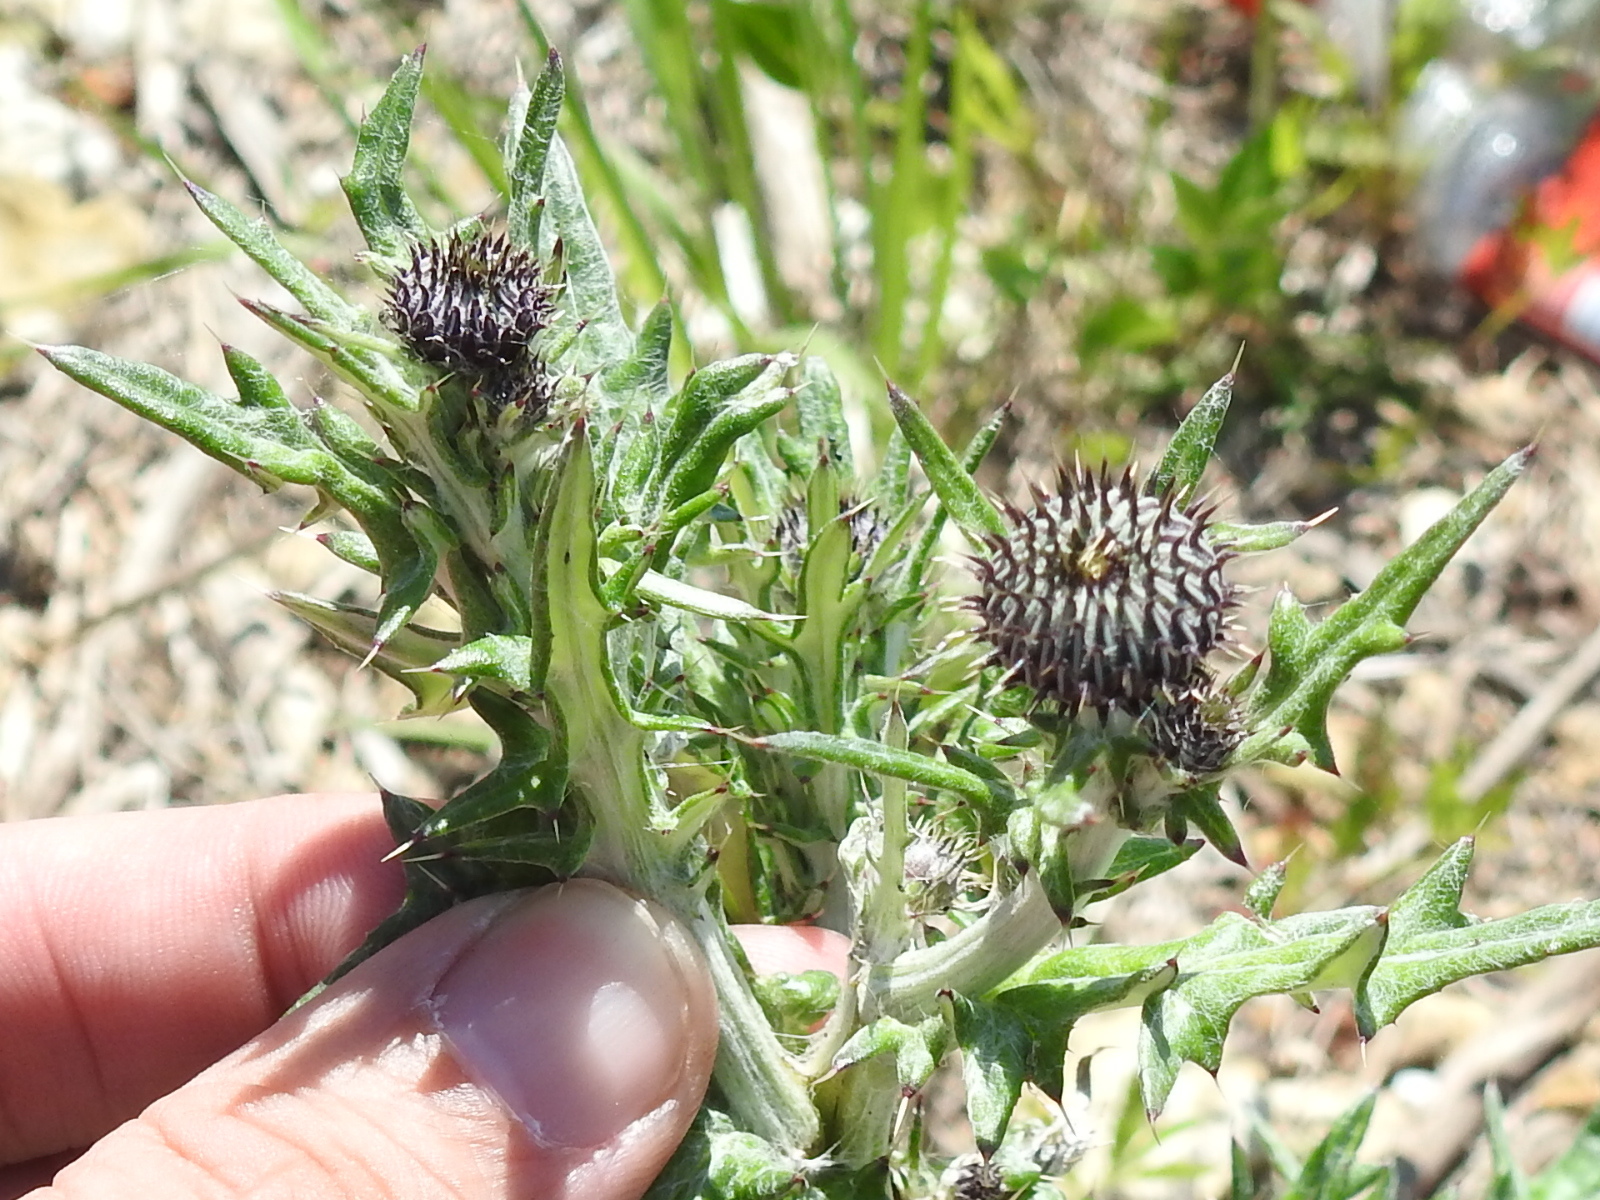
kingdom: Plantae
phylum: Tracheophyta
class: Magnoliopsida
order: Asterales
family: Asteraceae
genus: Cirsium
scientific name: Cirsium engelmannii
